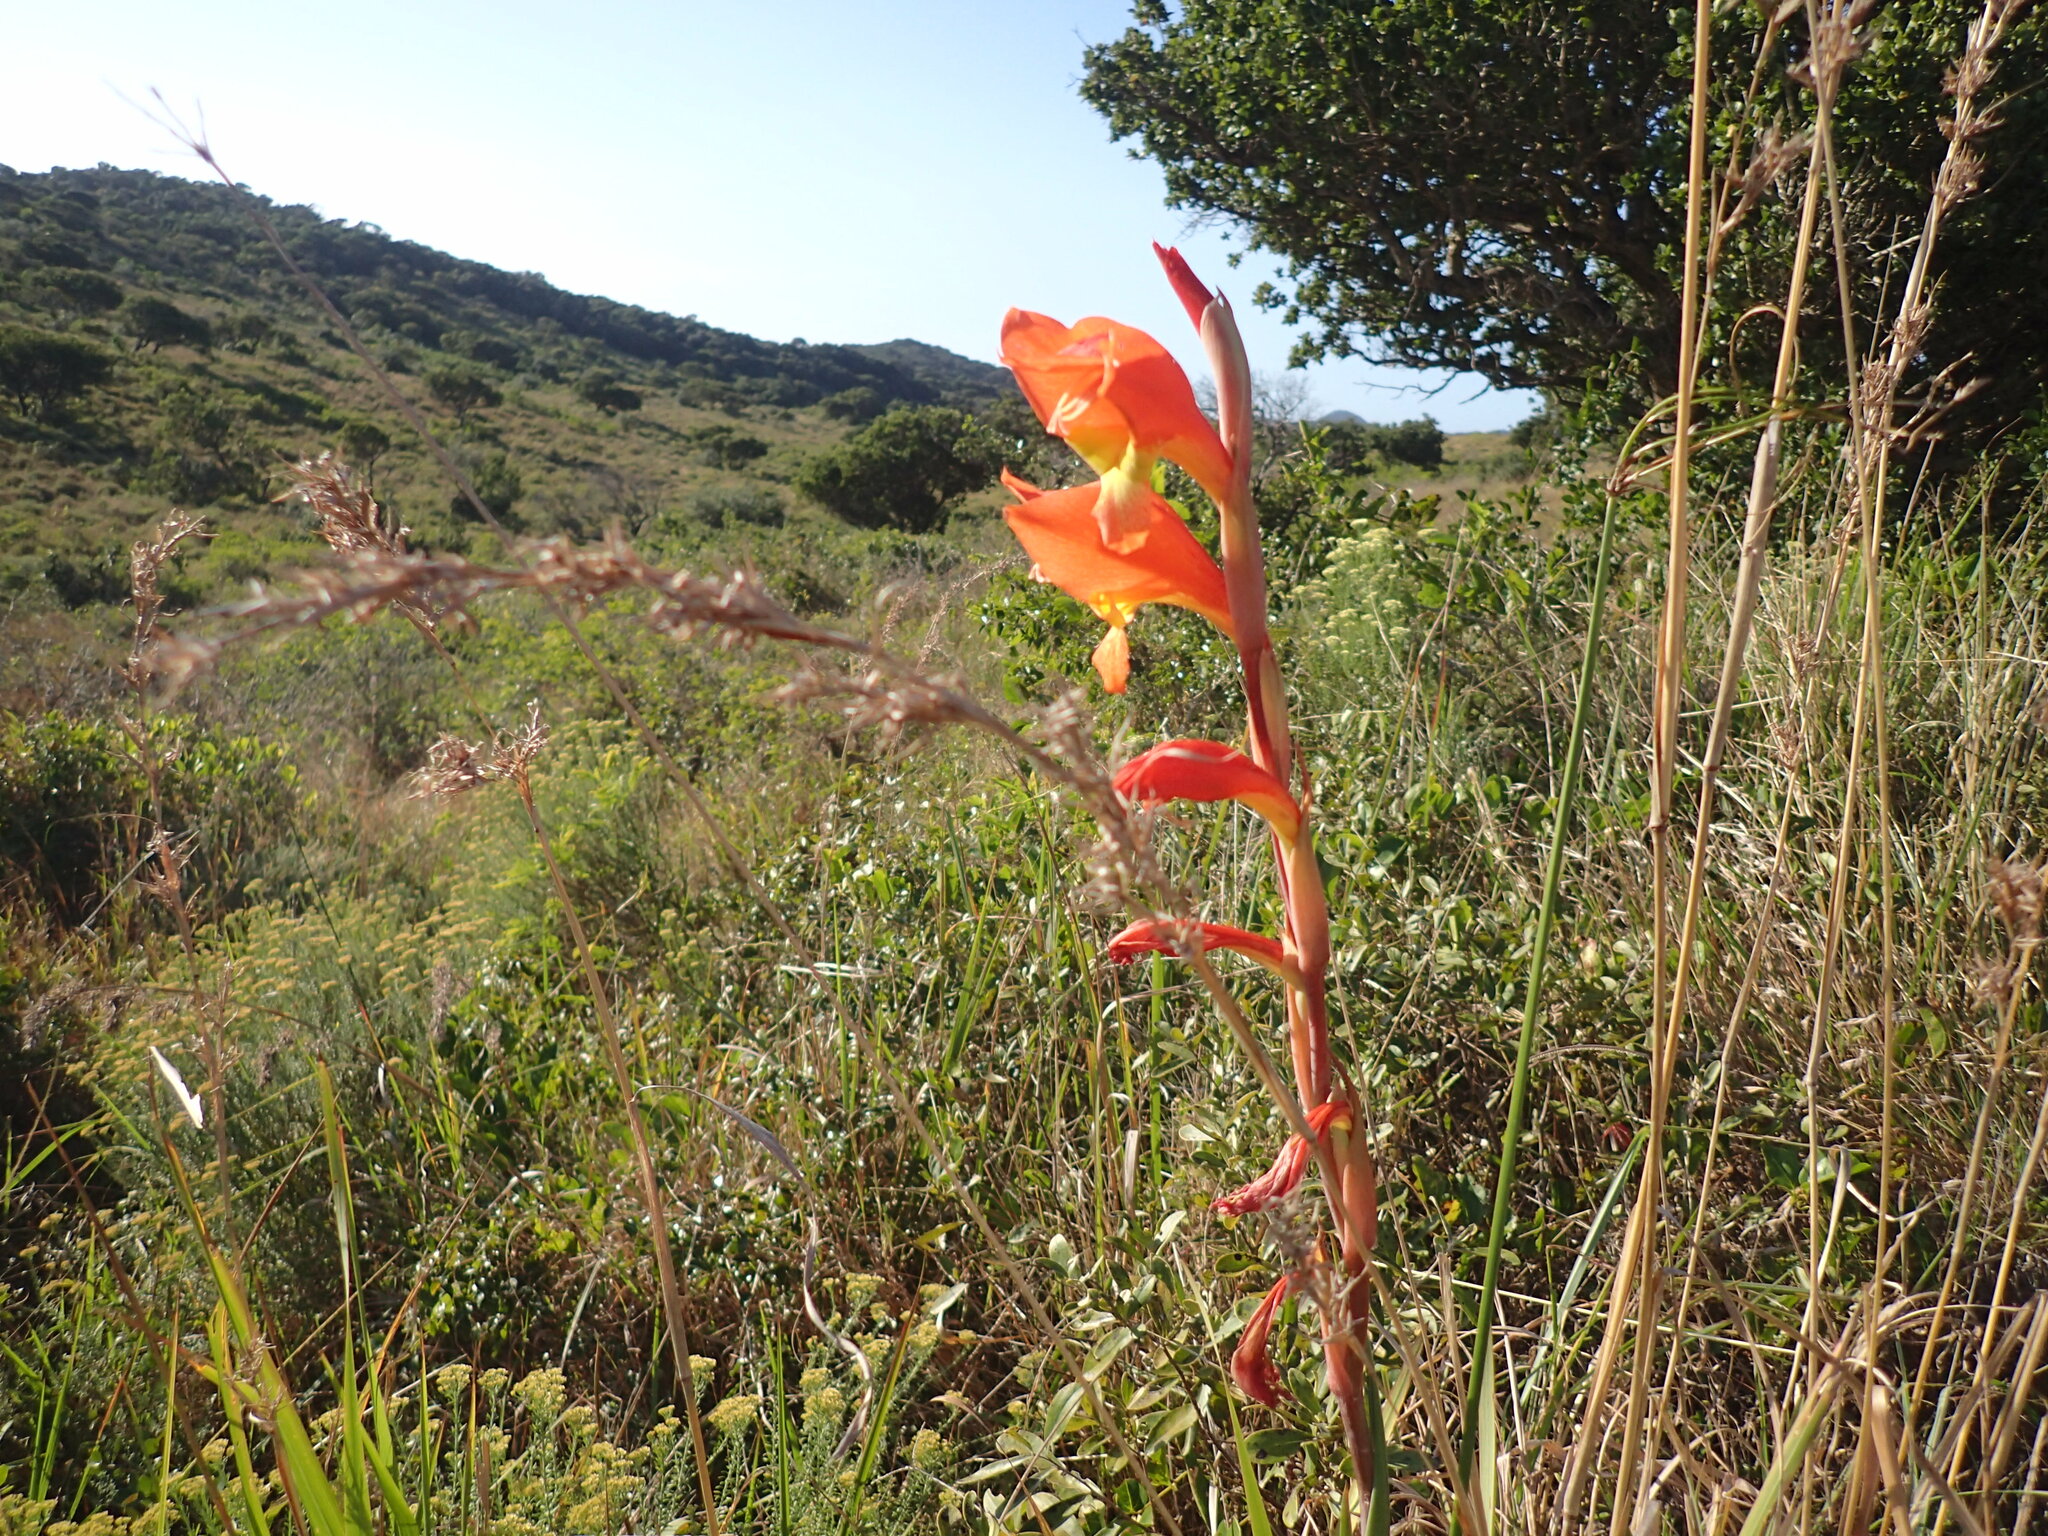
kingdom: Plantae
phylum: Tracheophyta
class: Liliopsida
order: Asparagales
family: Iridaceae
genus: Gladiolus
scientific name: Gladiolus dalenii
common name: Cornflag
